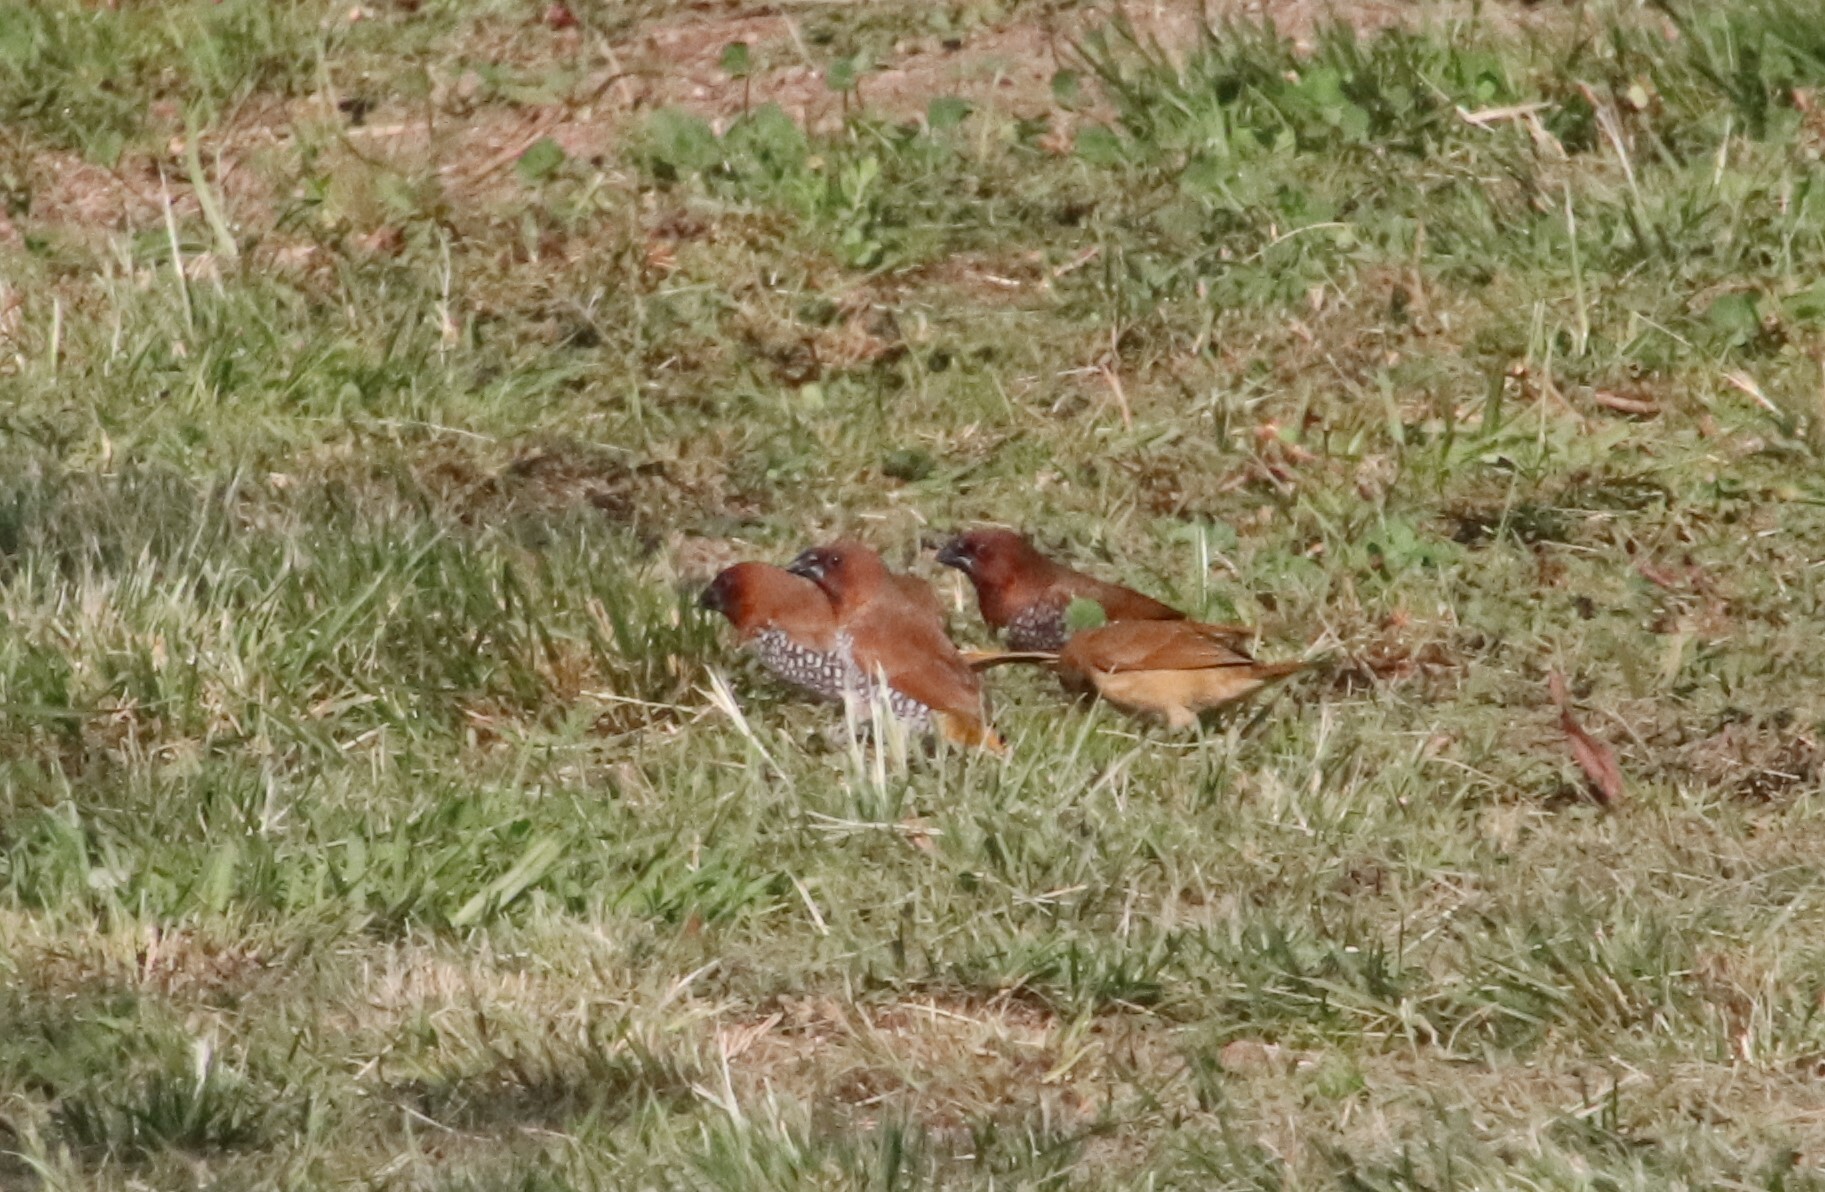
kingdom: Animalia
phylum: Chordata
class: Aves
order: Passeriformes
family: Estrildidae
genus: Lonchura
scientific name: Lonchura punctulata
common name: Scaly-breasted munia
